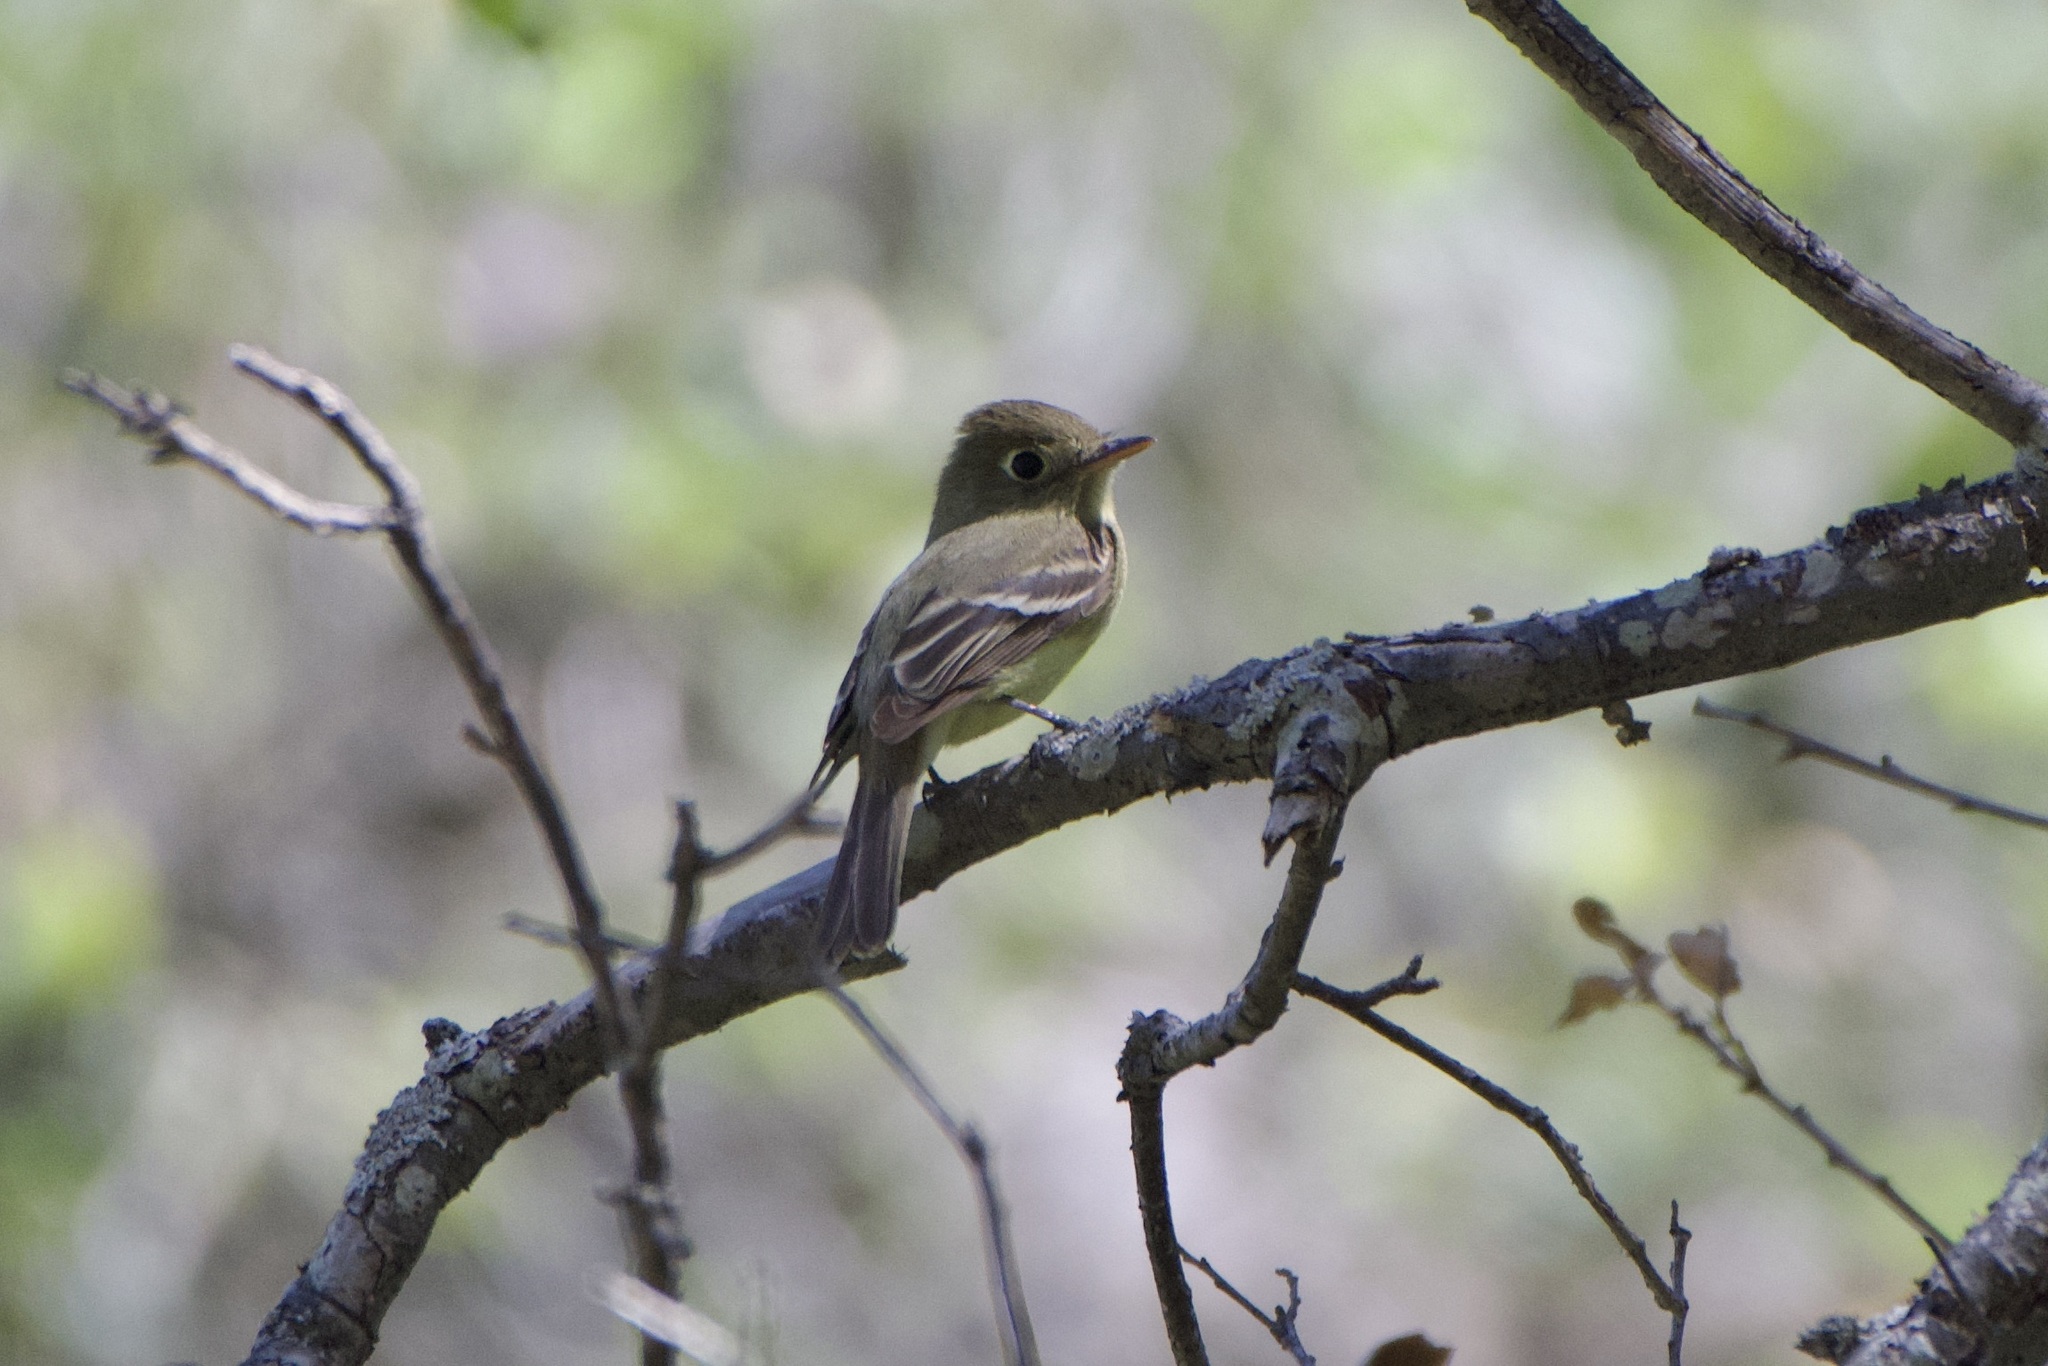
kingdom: Animalia
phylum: Chordata
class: Aves
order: Passeriformes
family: Tyrannidae
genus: Empidonax
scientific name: Empidonax difficilis
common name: Pacific-slope flycatcher
